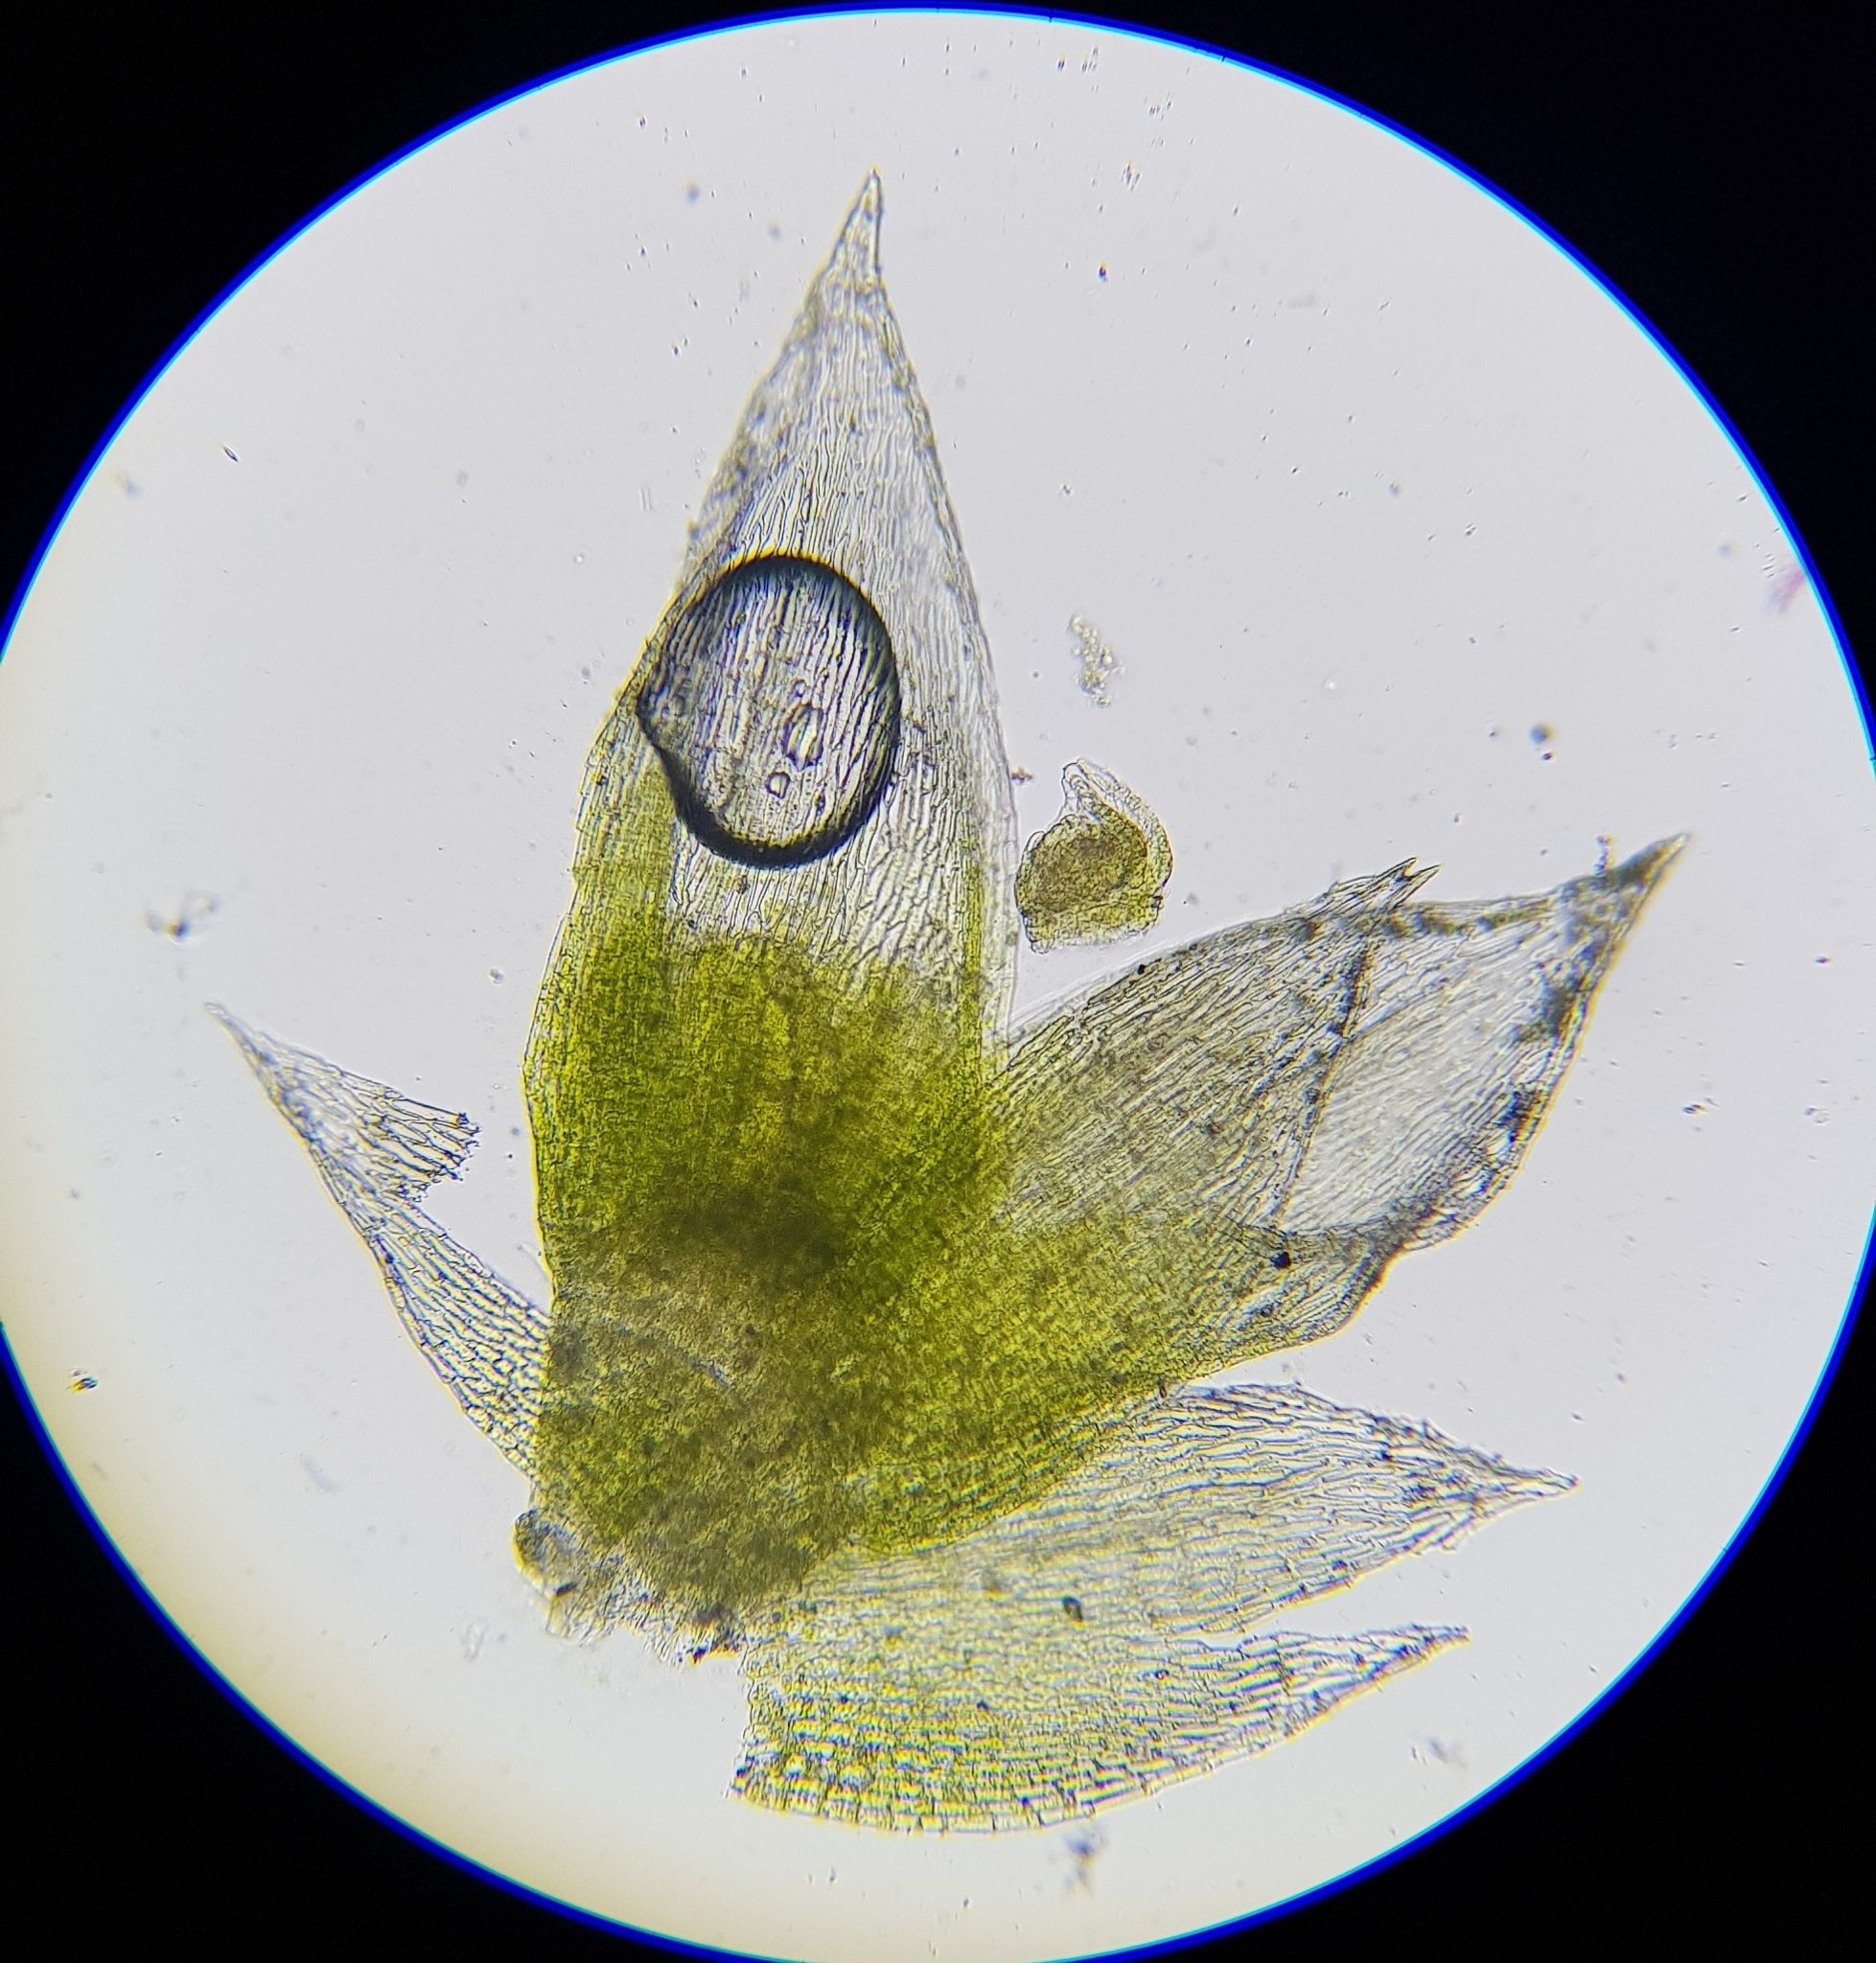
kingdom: Plantae
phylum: Bryophyta
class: Bryopsida
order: Bryales
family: Bryaceae
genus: Bryum
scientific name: Bryum argenteum
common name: Silver-moss
